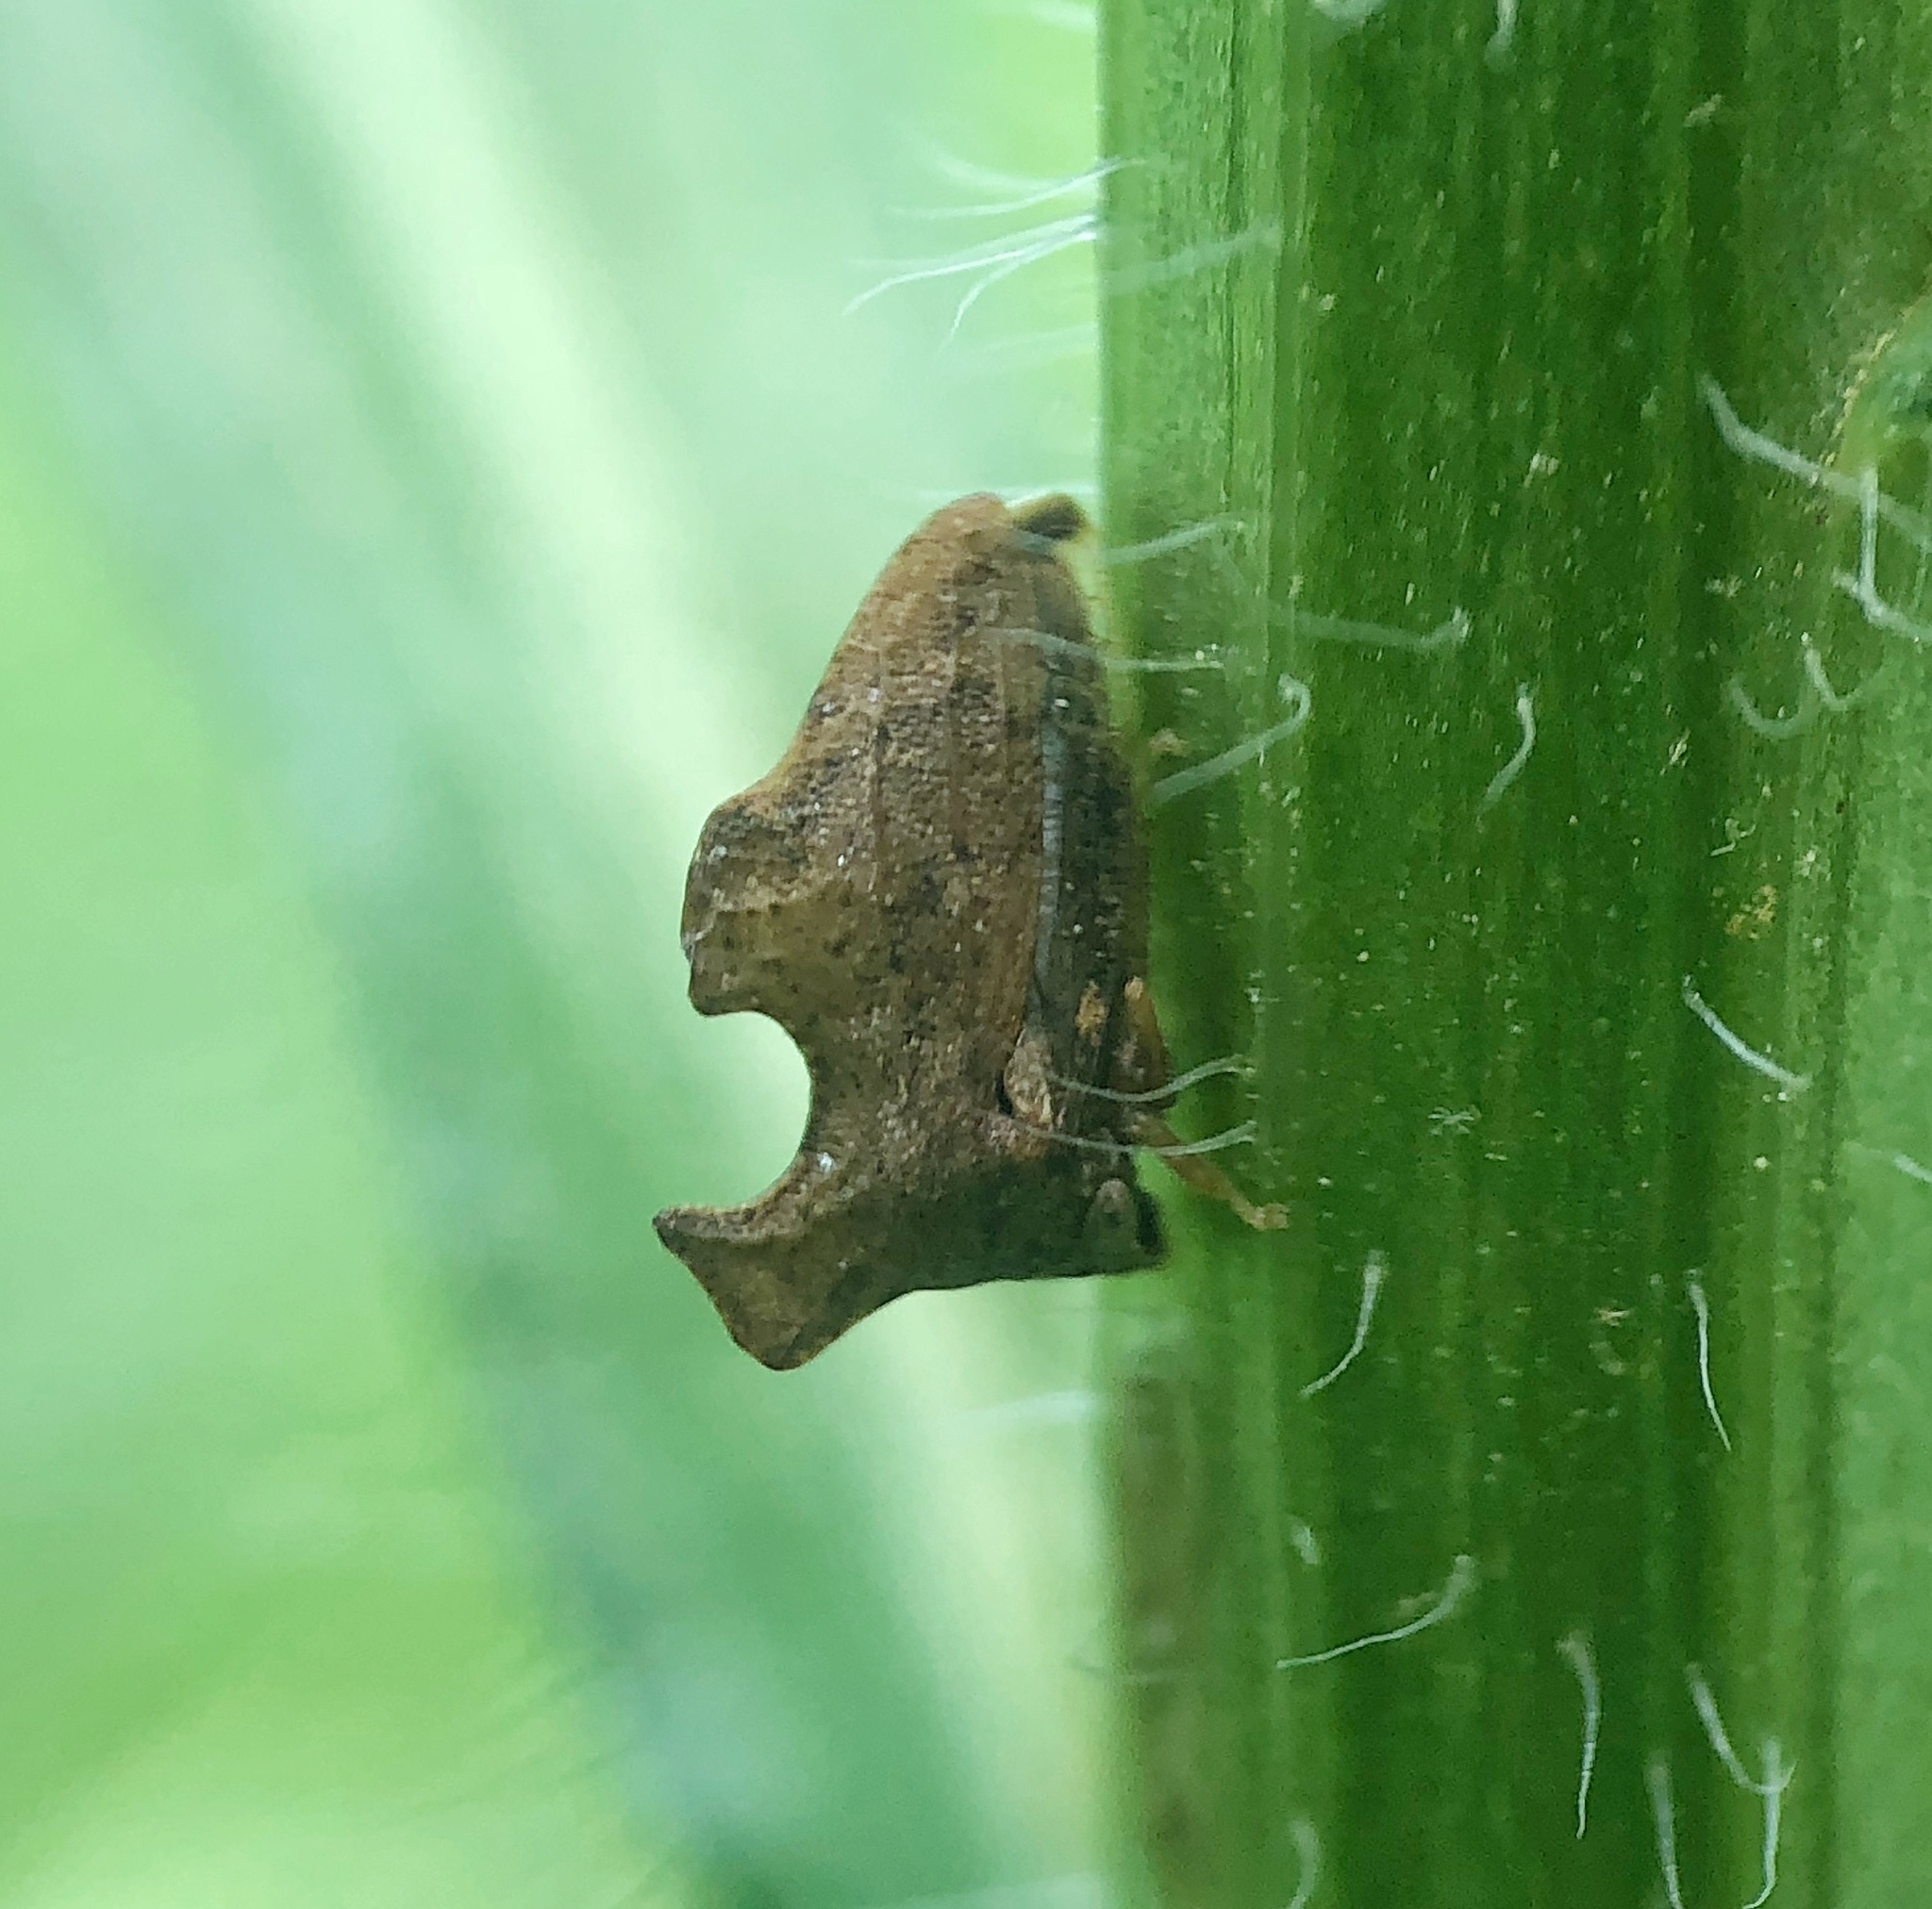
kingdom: Animalia
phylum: Arthropoda
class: Insecta
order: Hemiptera
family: Membracidae
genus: Entylia
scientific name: Entylia carinata
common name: Keeled treehopper
